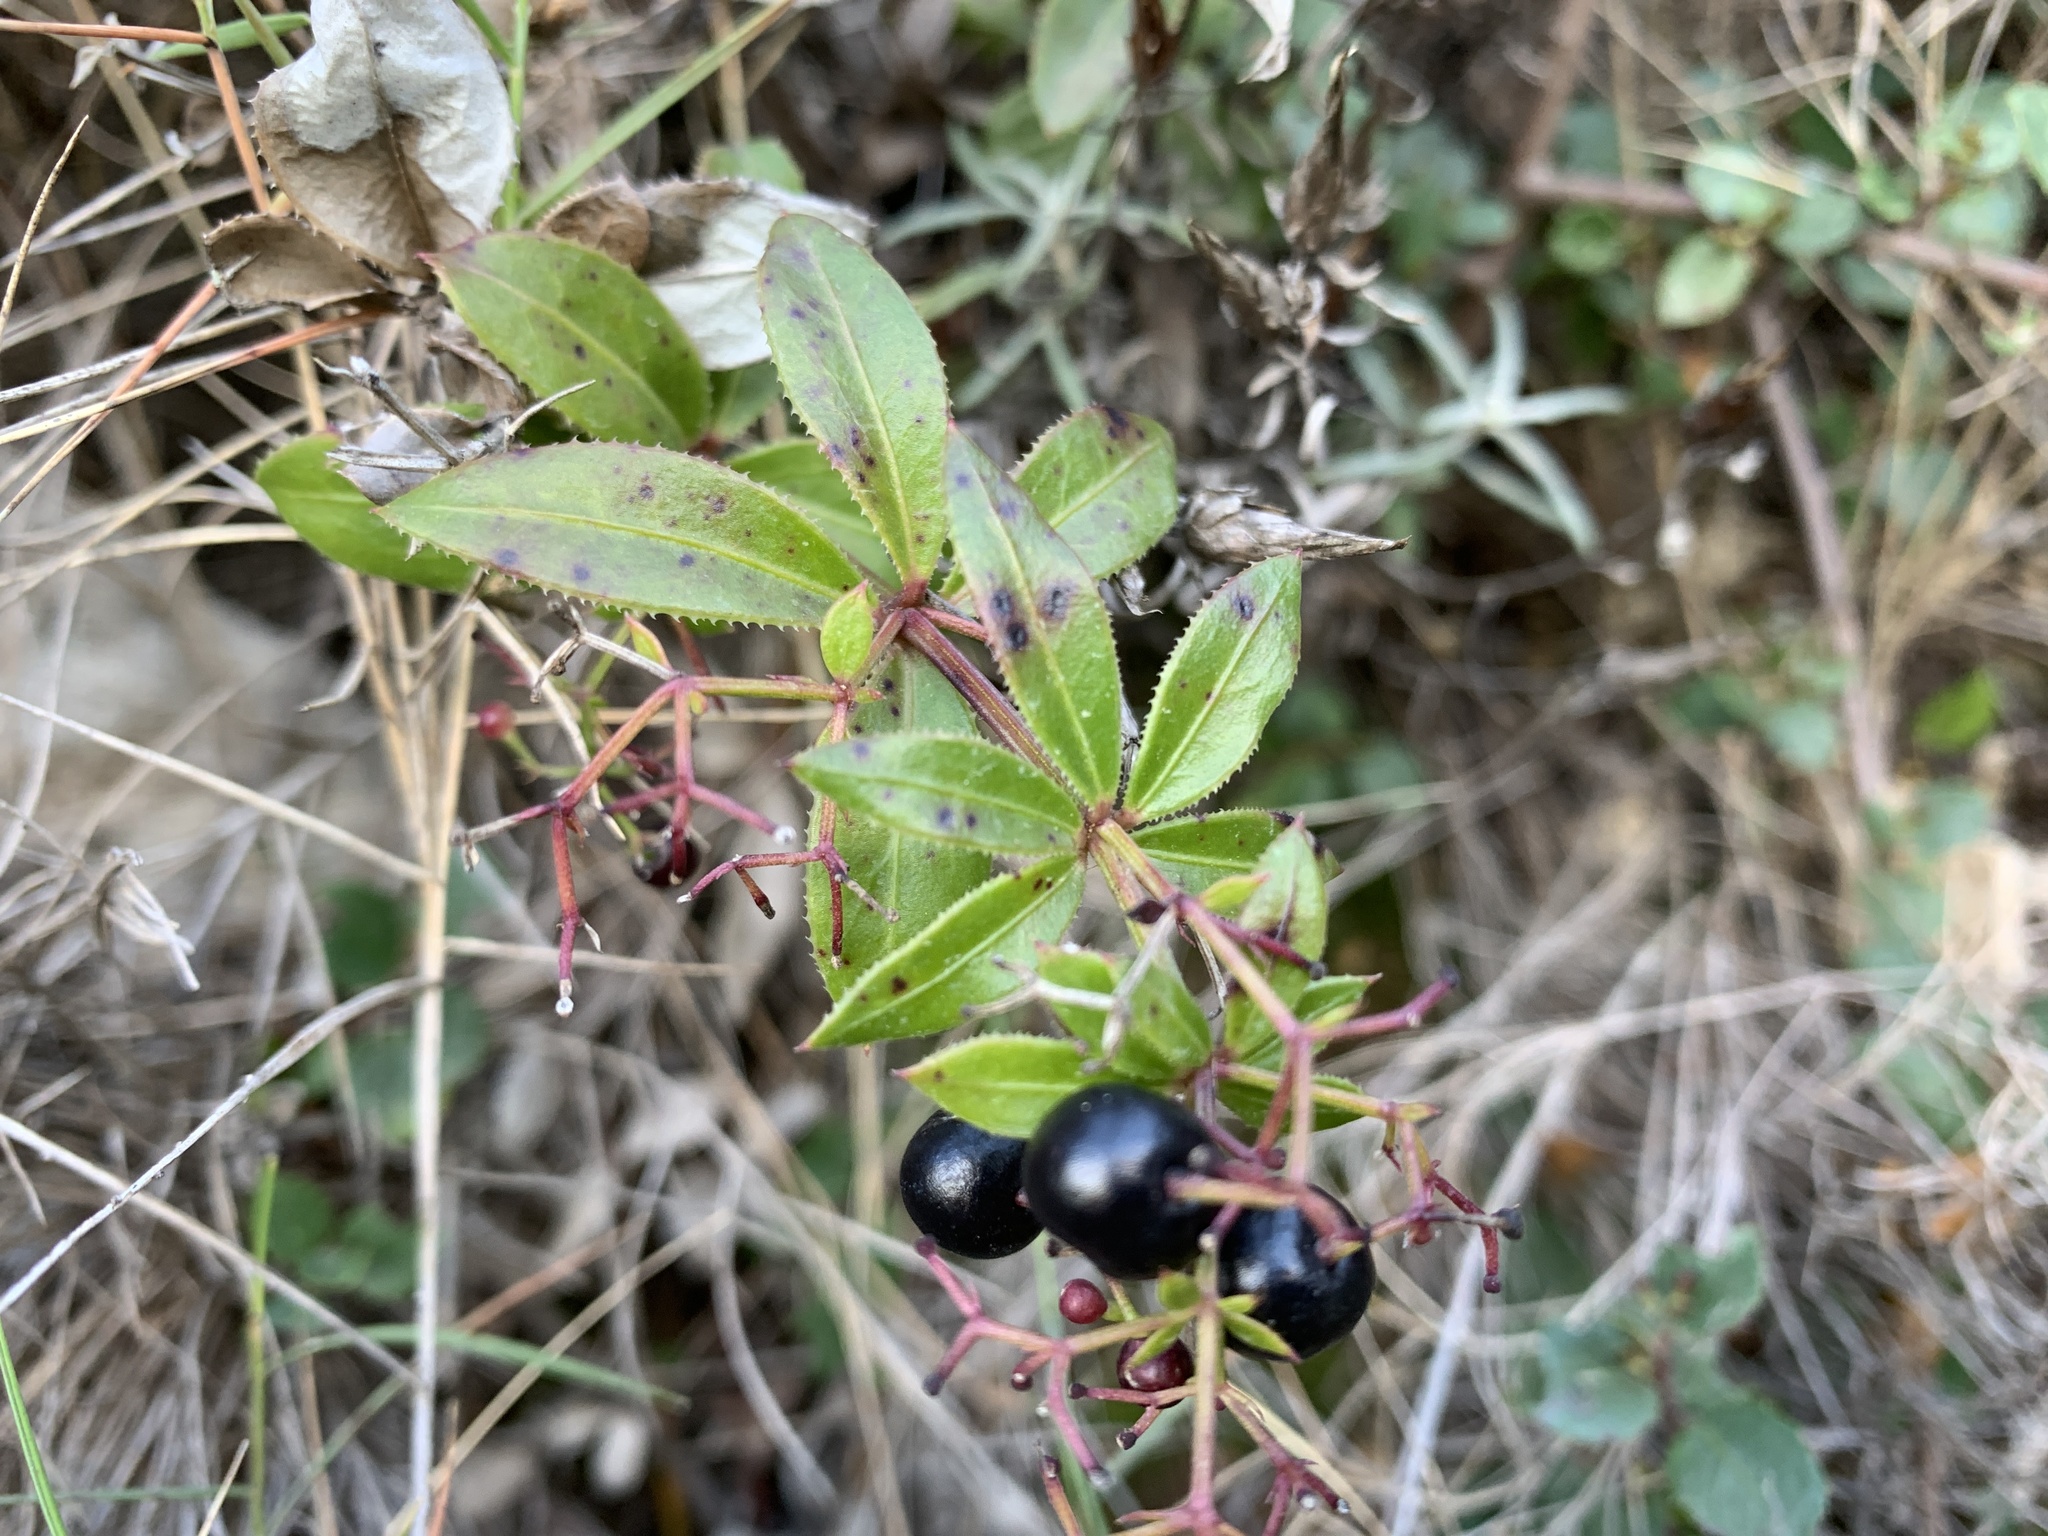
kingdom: Plantae
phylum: Tracheophyta
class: Magnoliopsida
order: Gentianales
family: Rubiaceae
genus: Rubia
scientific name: Rubia peregrina
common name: Wild madder
